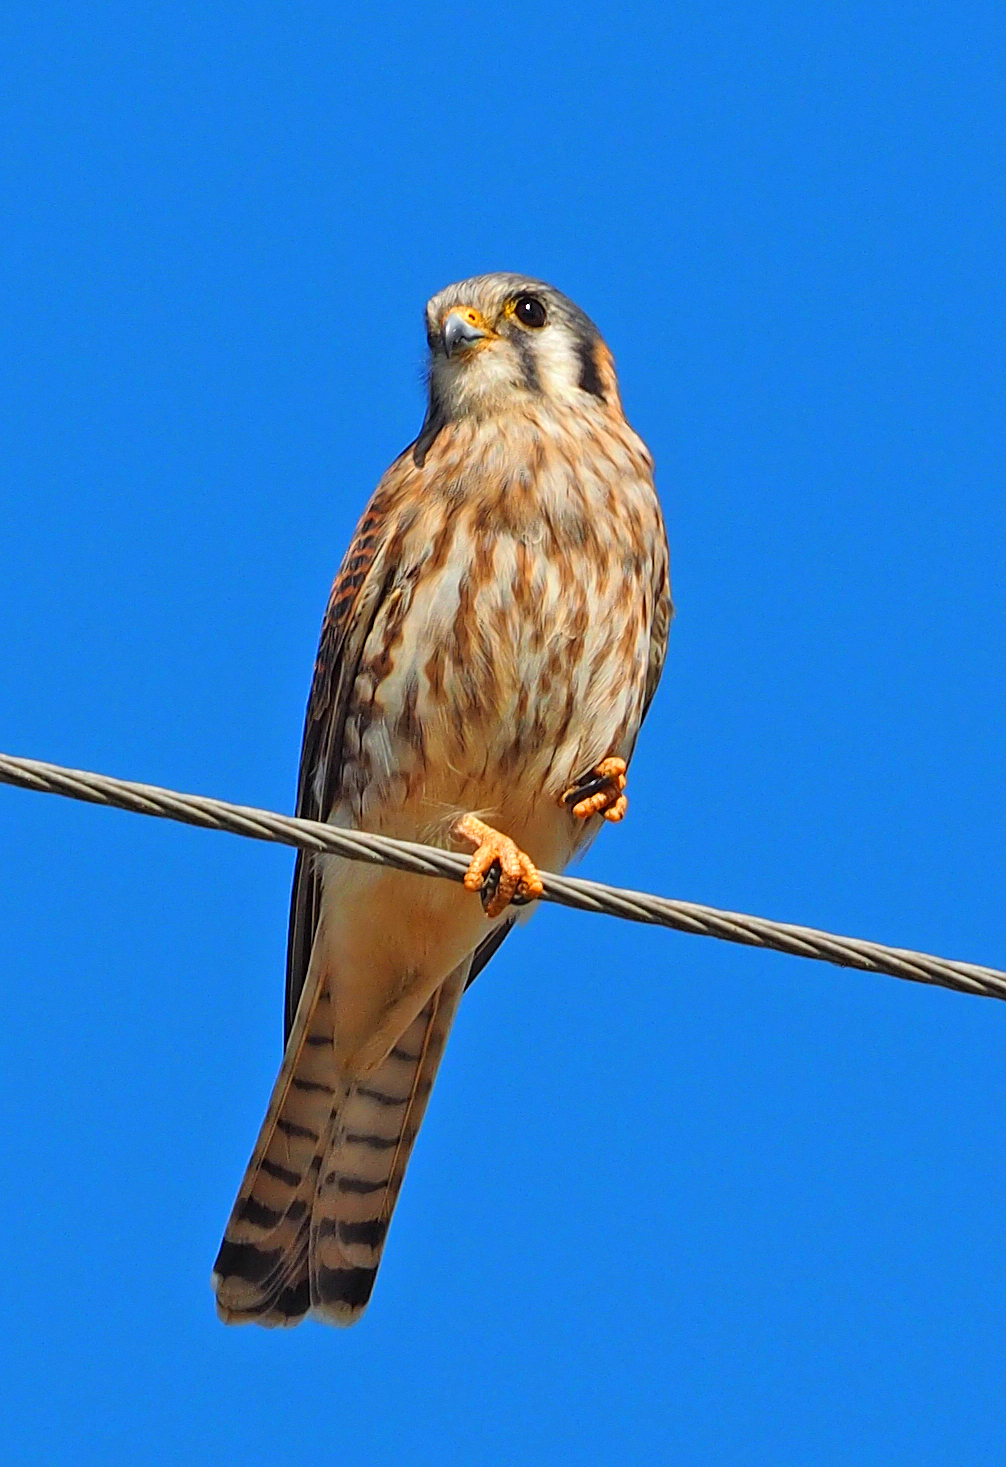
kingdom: Animalia
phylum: Chordata
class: Aves
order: Falconiformes
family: Falconidae
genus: Falco
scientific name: Falco sparverius
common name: American kestrel
